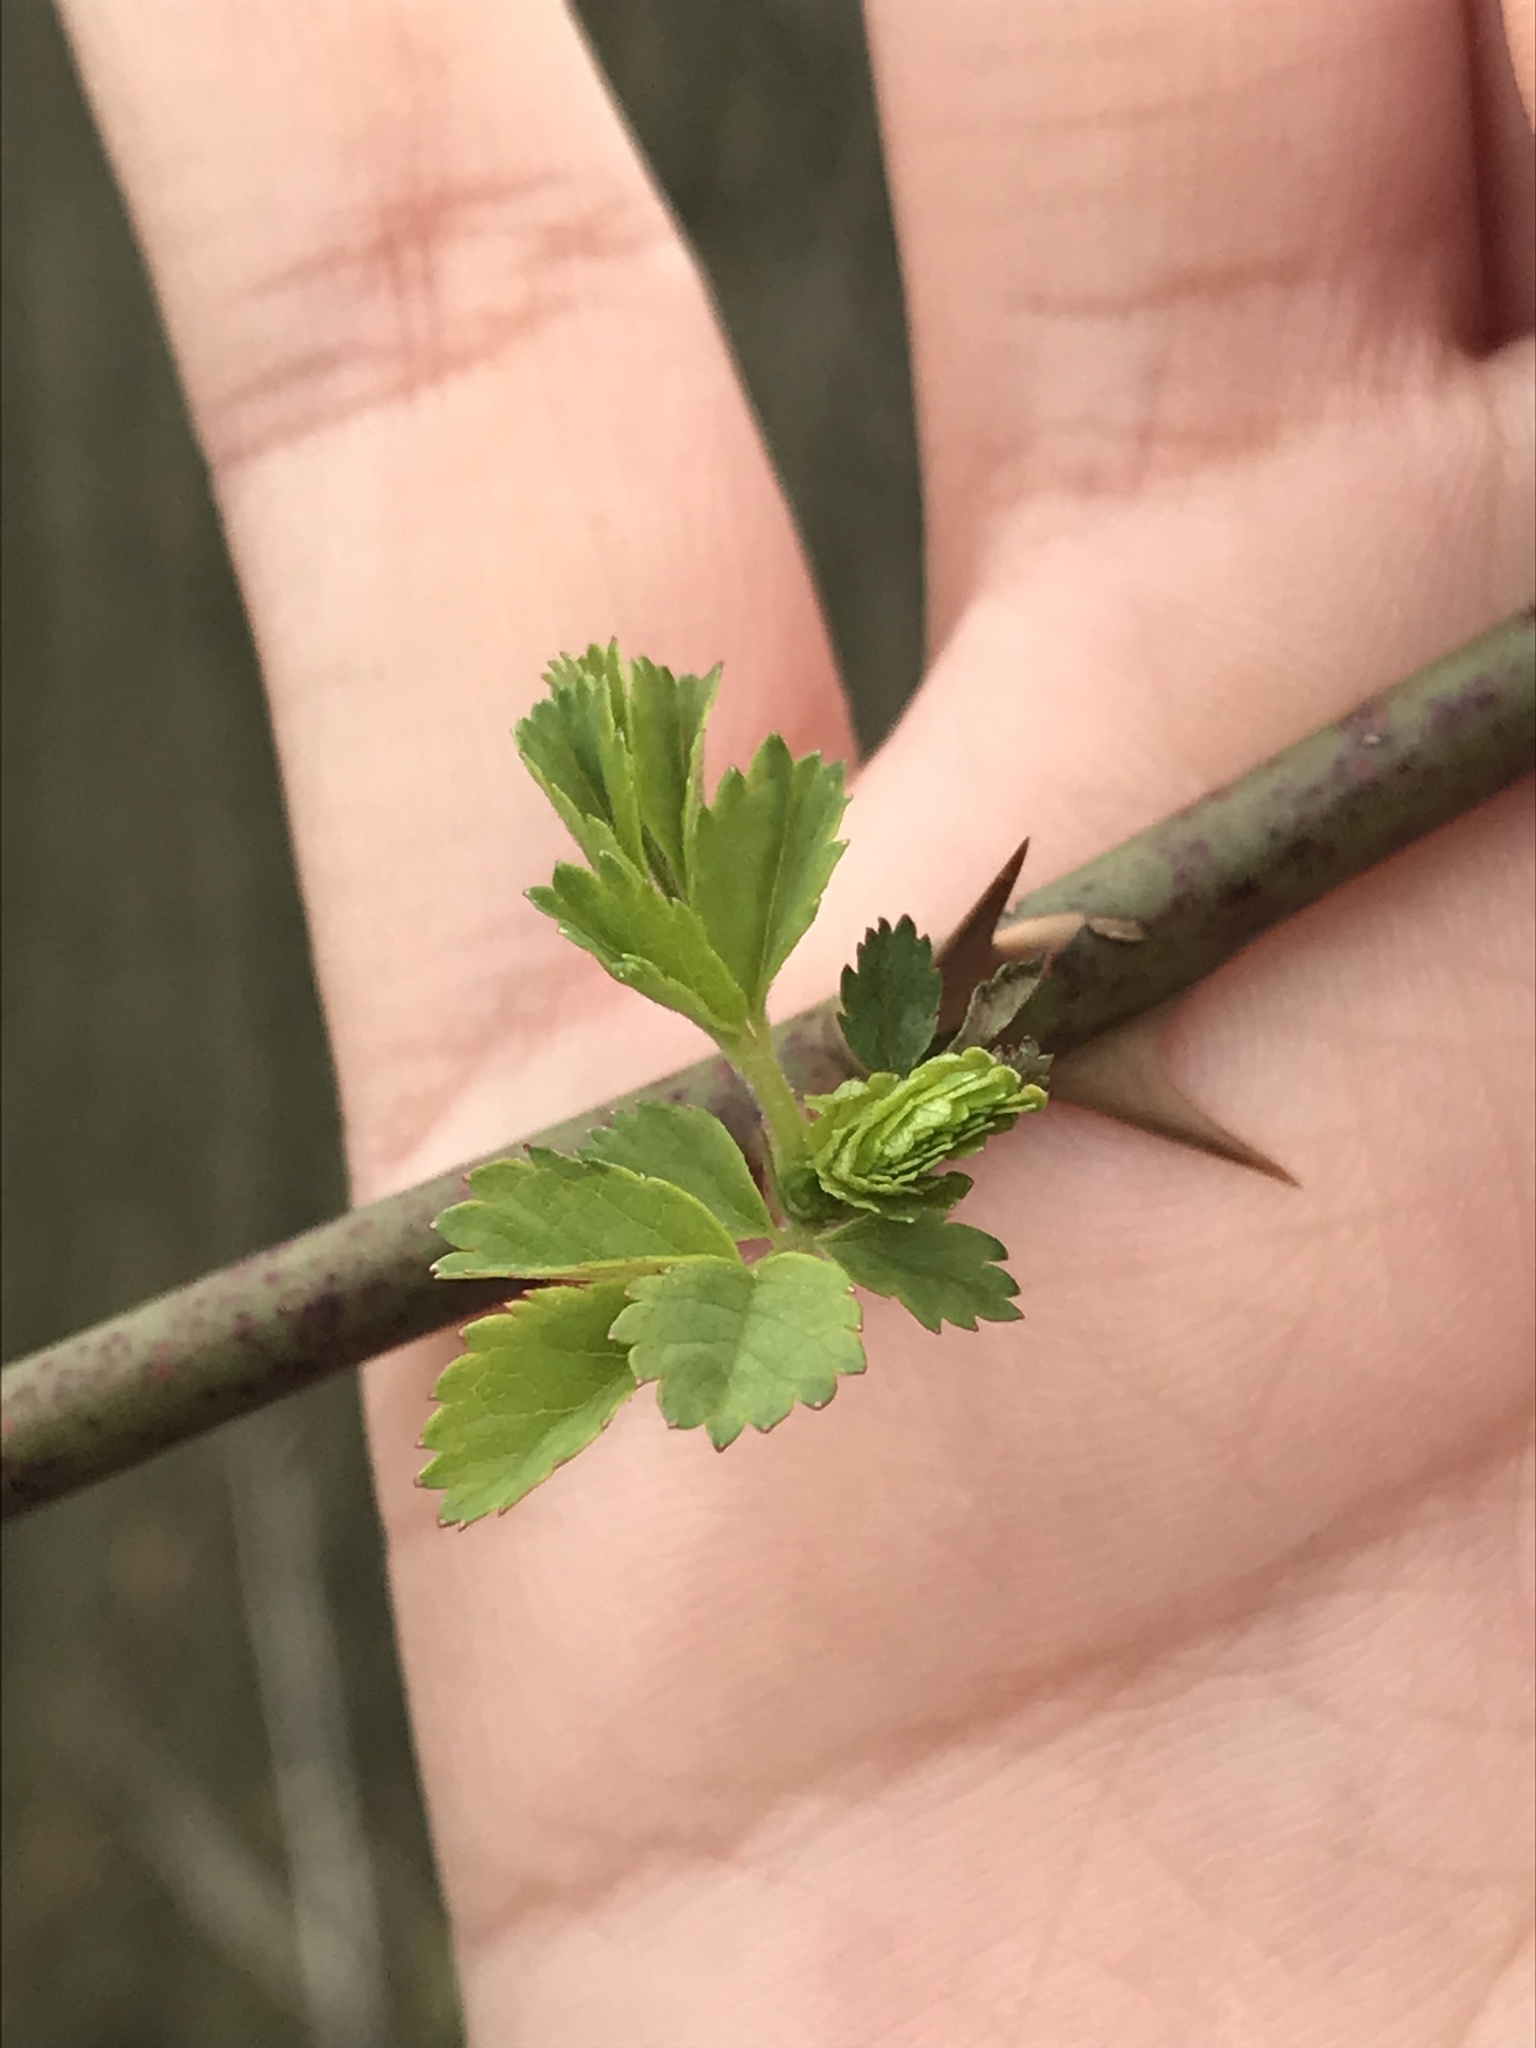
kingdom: Plantae
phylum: Tracheophyta
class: Magnoliopsida
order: Rosales
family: Rosaceae
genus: Rosa
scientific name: Rosa multiflora
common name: Multiflora rose
